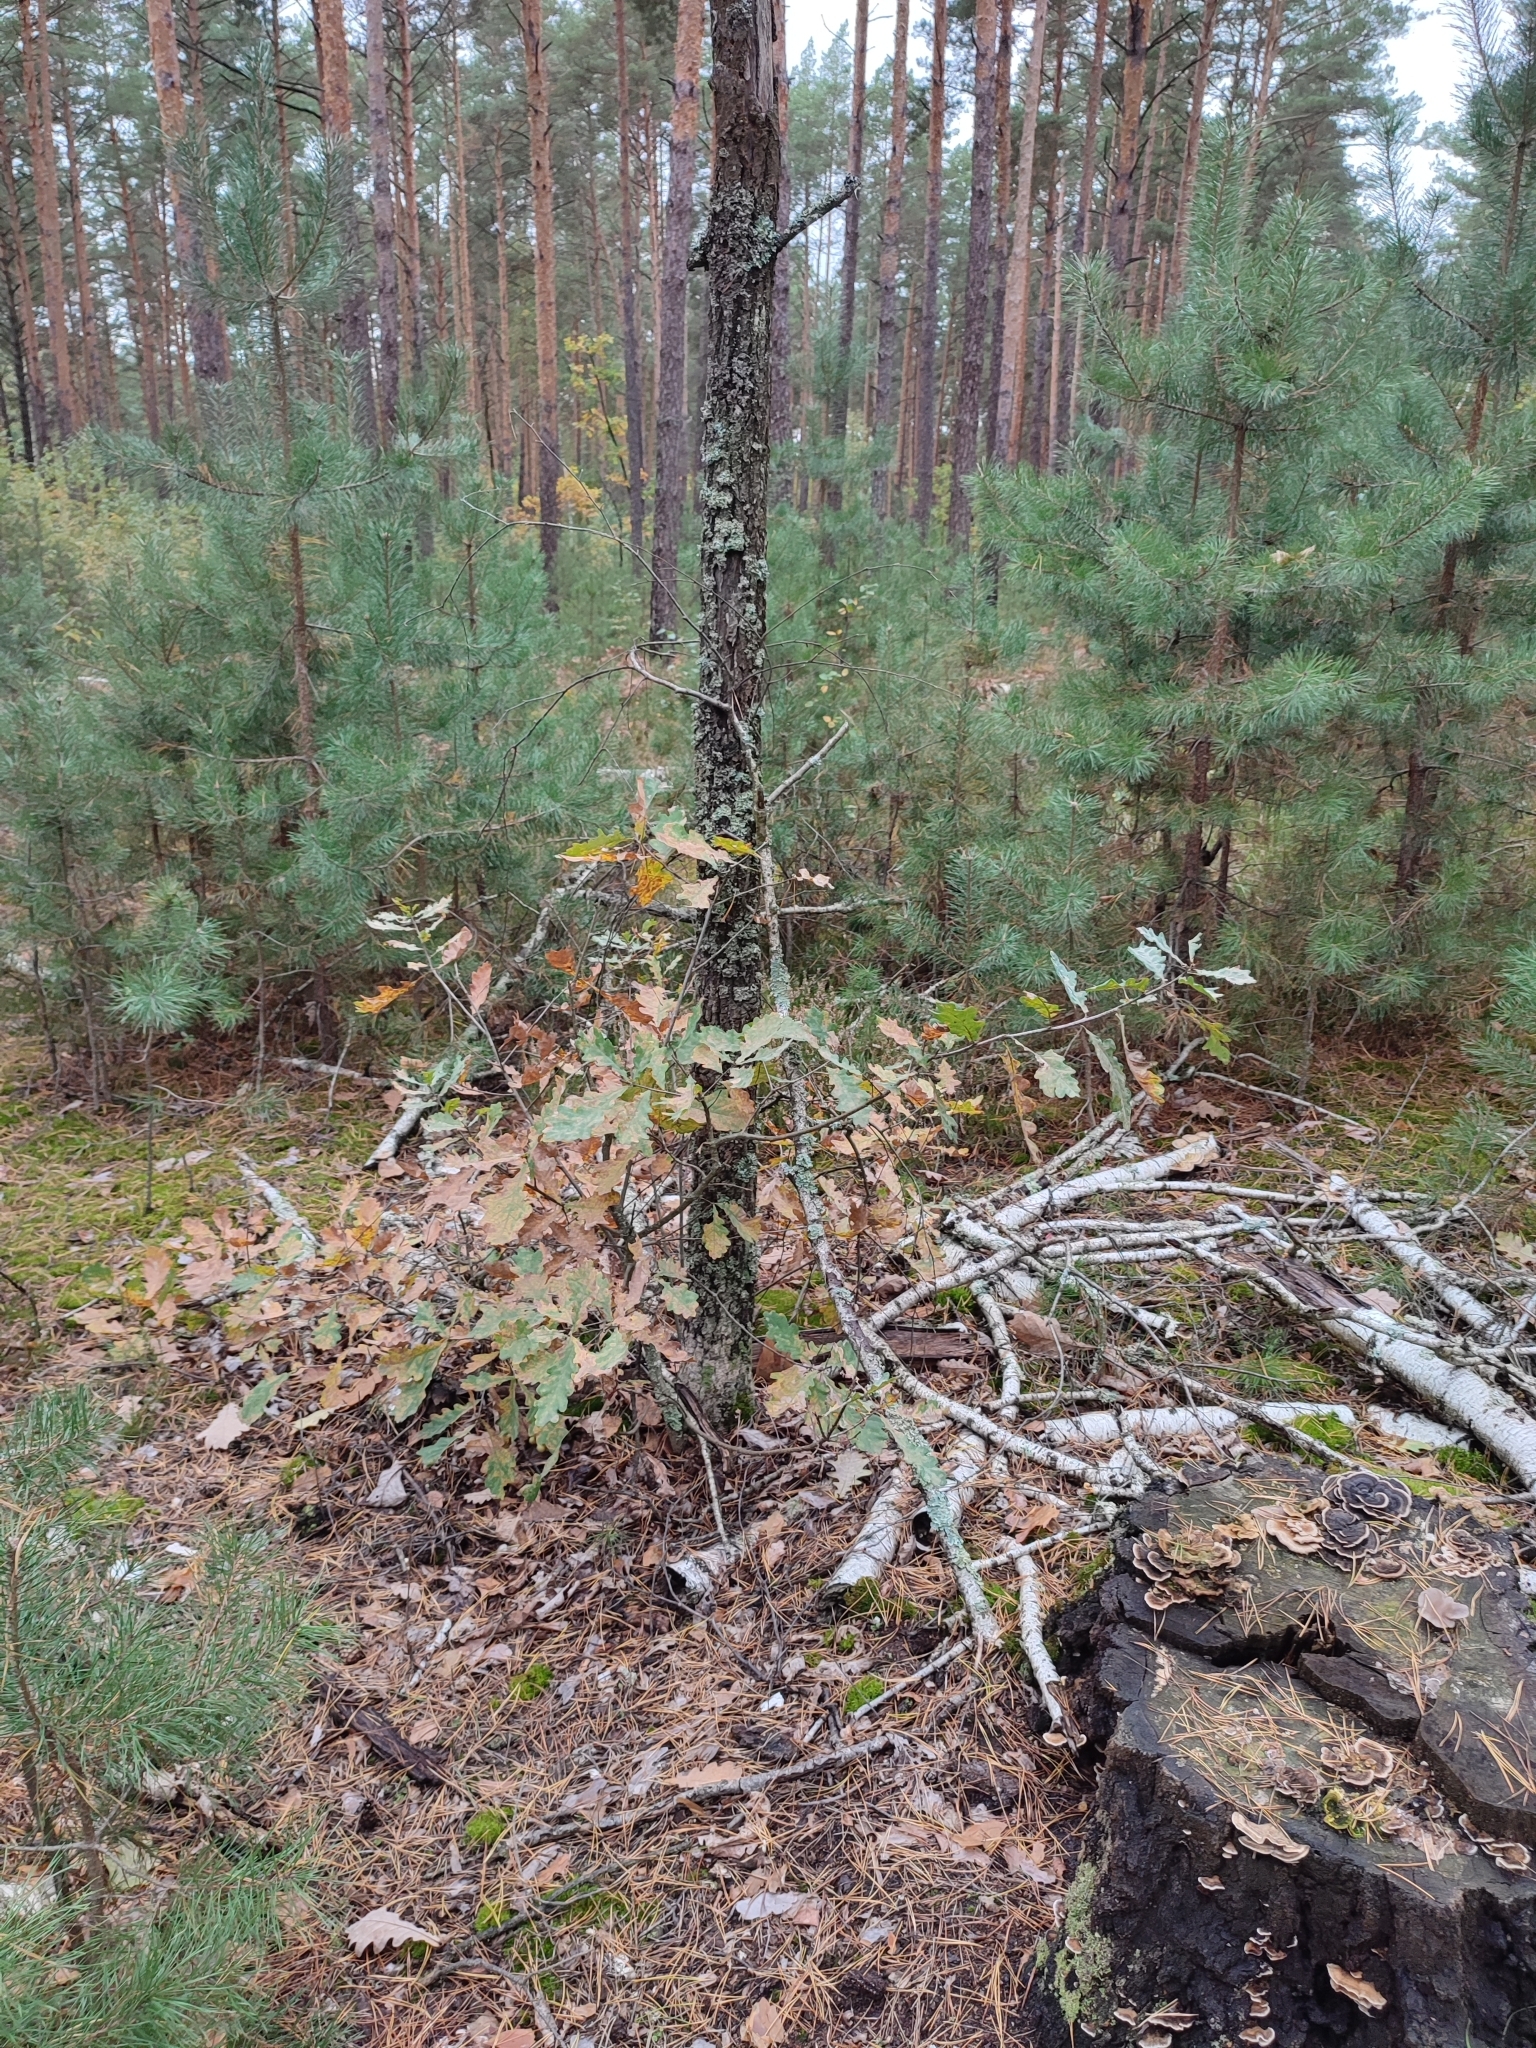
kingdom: Plantae
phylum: Tracheophyta
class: Magnoliopsida
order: Fagales
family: Fagaceae
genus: Quercus
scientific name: Quercus robur
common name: Pedunculate oak
